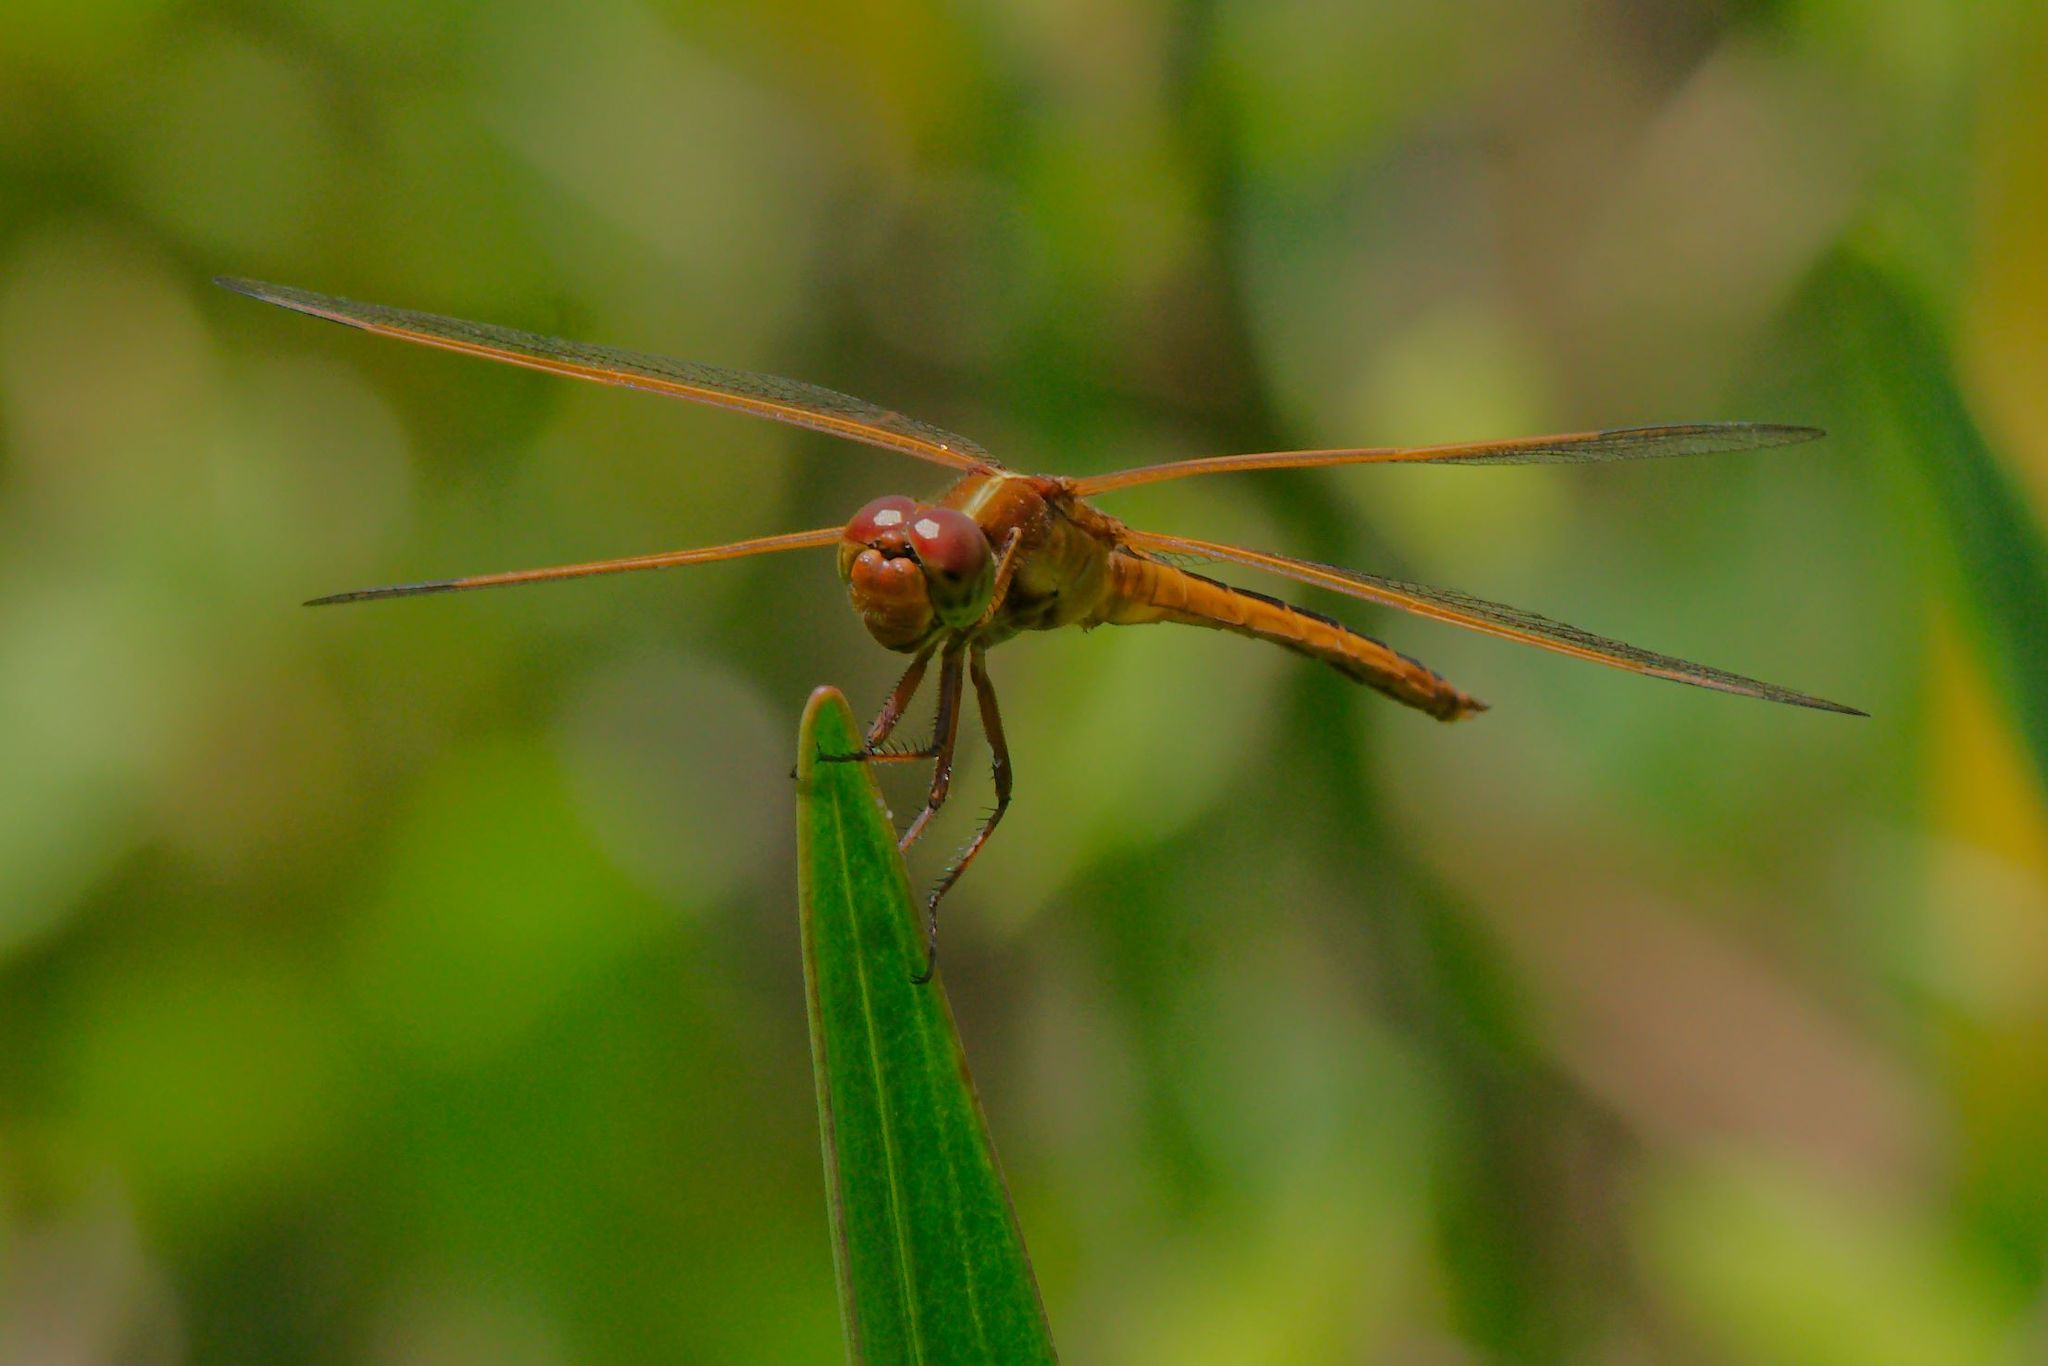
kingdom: Animalia
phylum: Arthropoda
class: Insecta
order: Odonata
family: Libellulidae
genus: Libellula
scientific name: Libellula needhami
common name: Needham's skimmer
